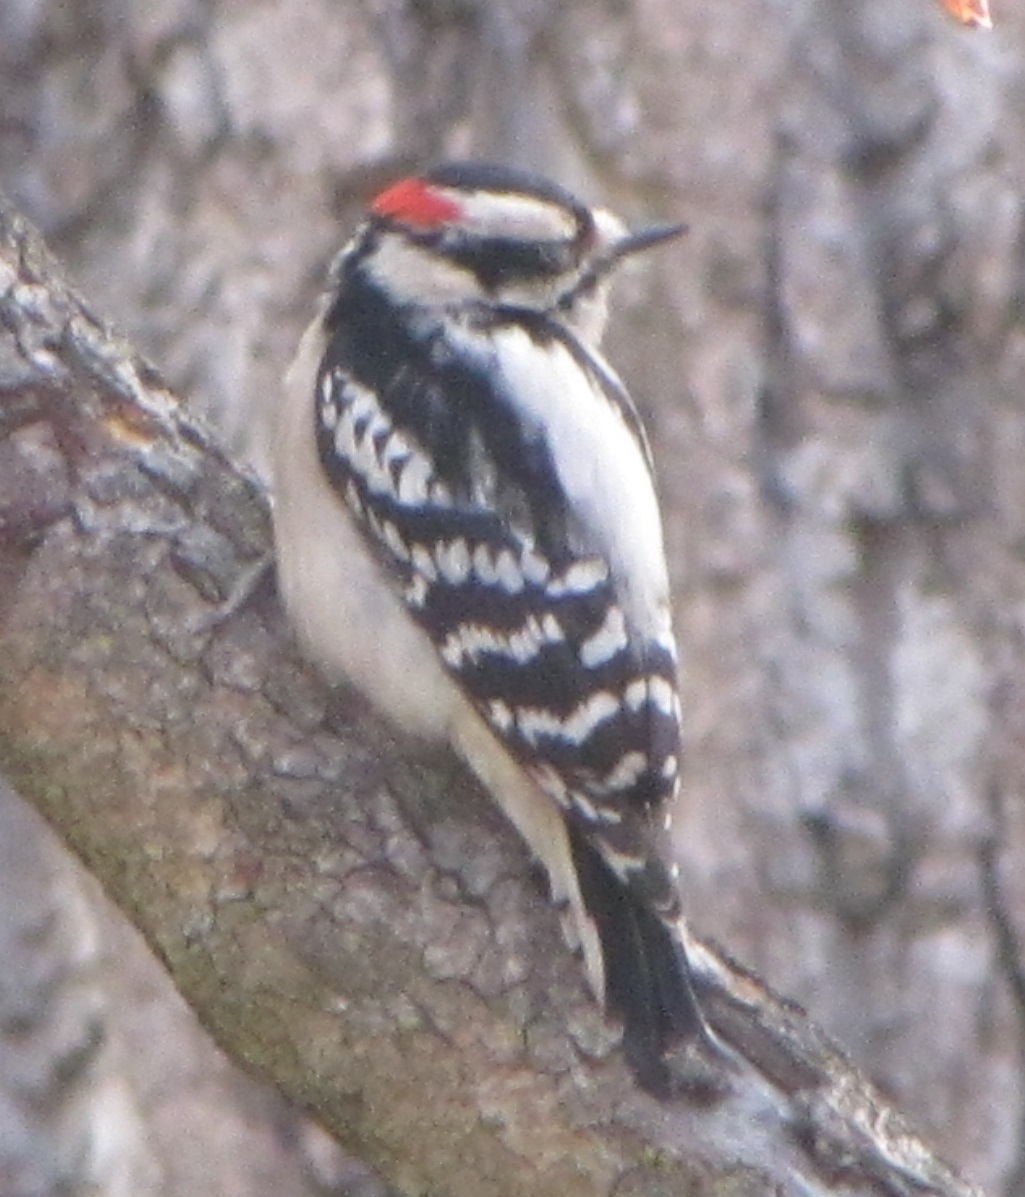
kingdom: Animalia
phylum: Chordata
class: Aves
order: Piciformes
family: Picidae
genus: Dryobates
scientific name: Dryobates pubescens
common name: Downy woodpecker
